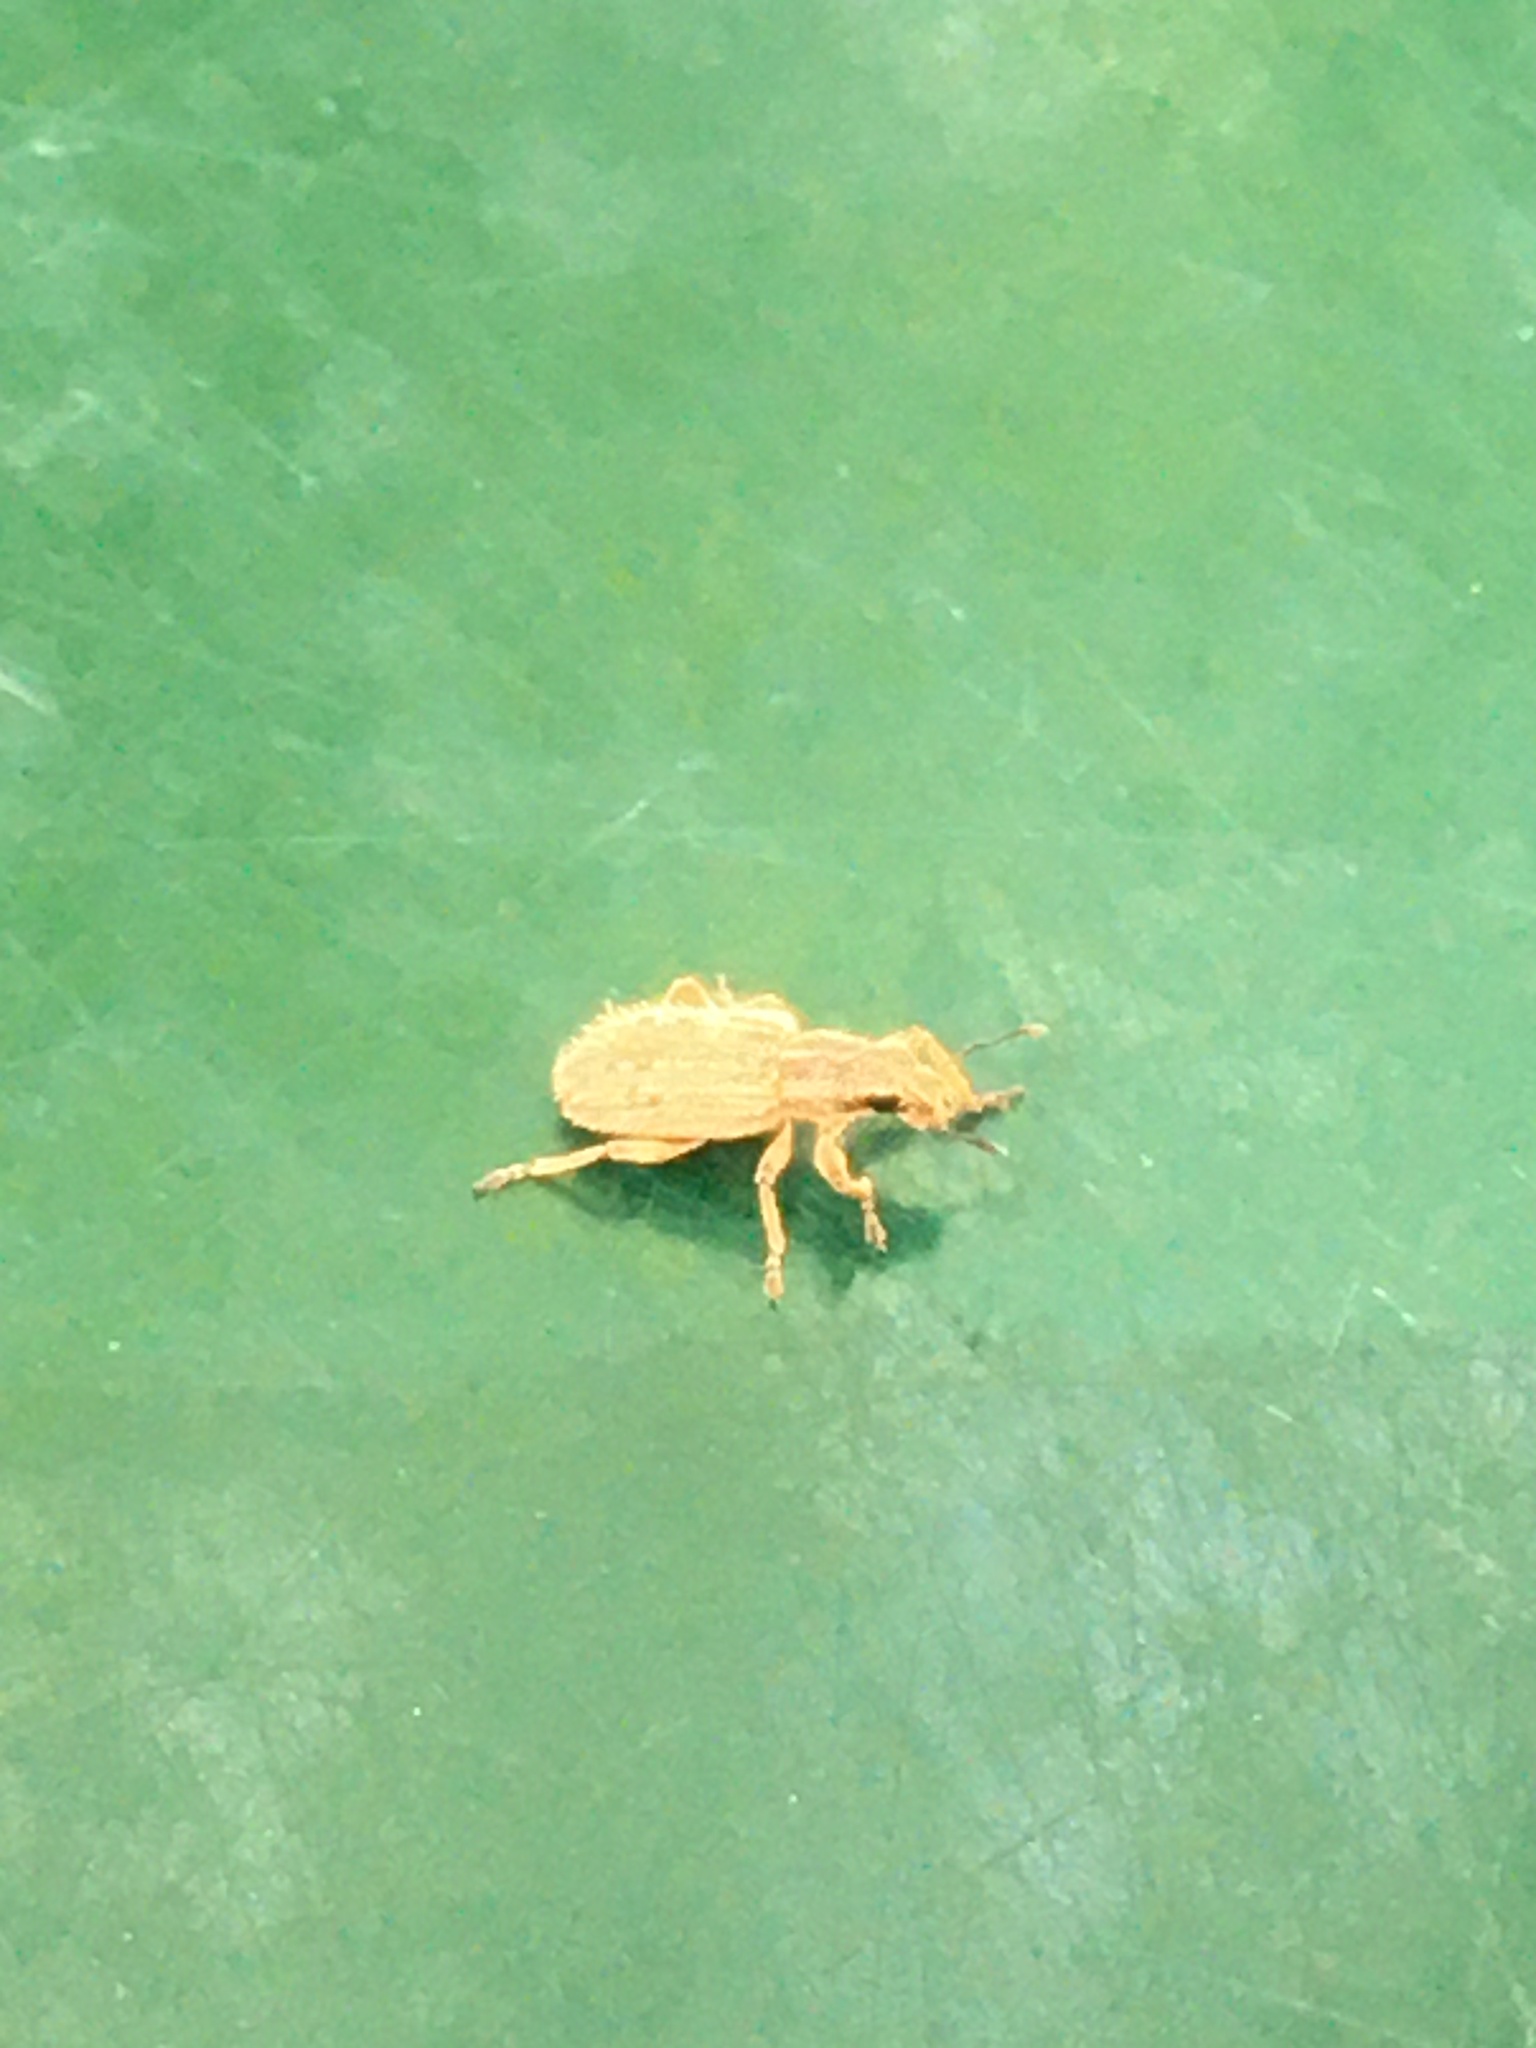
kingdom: Animalia
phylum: Arthropoda
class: Insecta
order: Coleoptera
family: Curculionidae
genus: Sitona
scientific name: Sitona hispidulus
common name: Clover weevil
